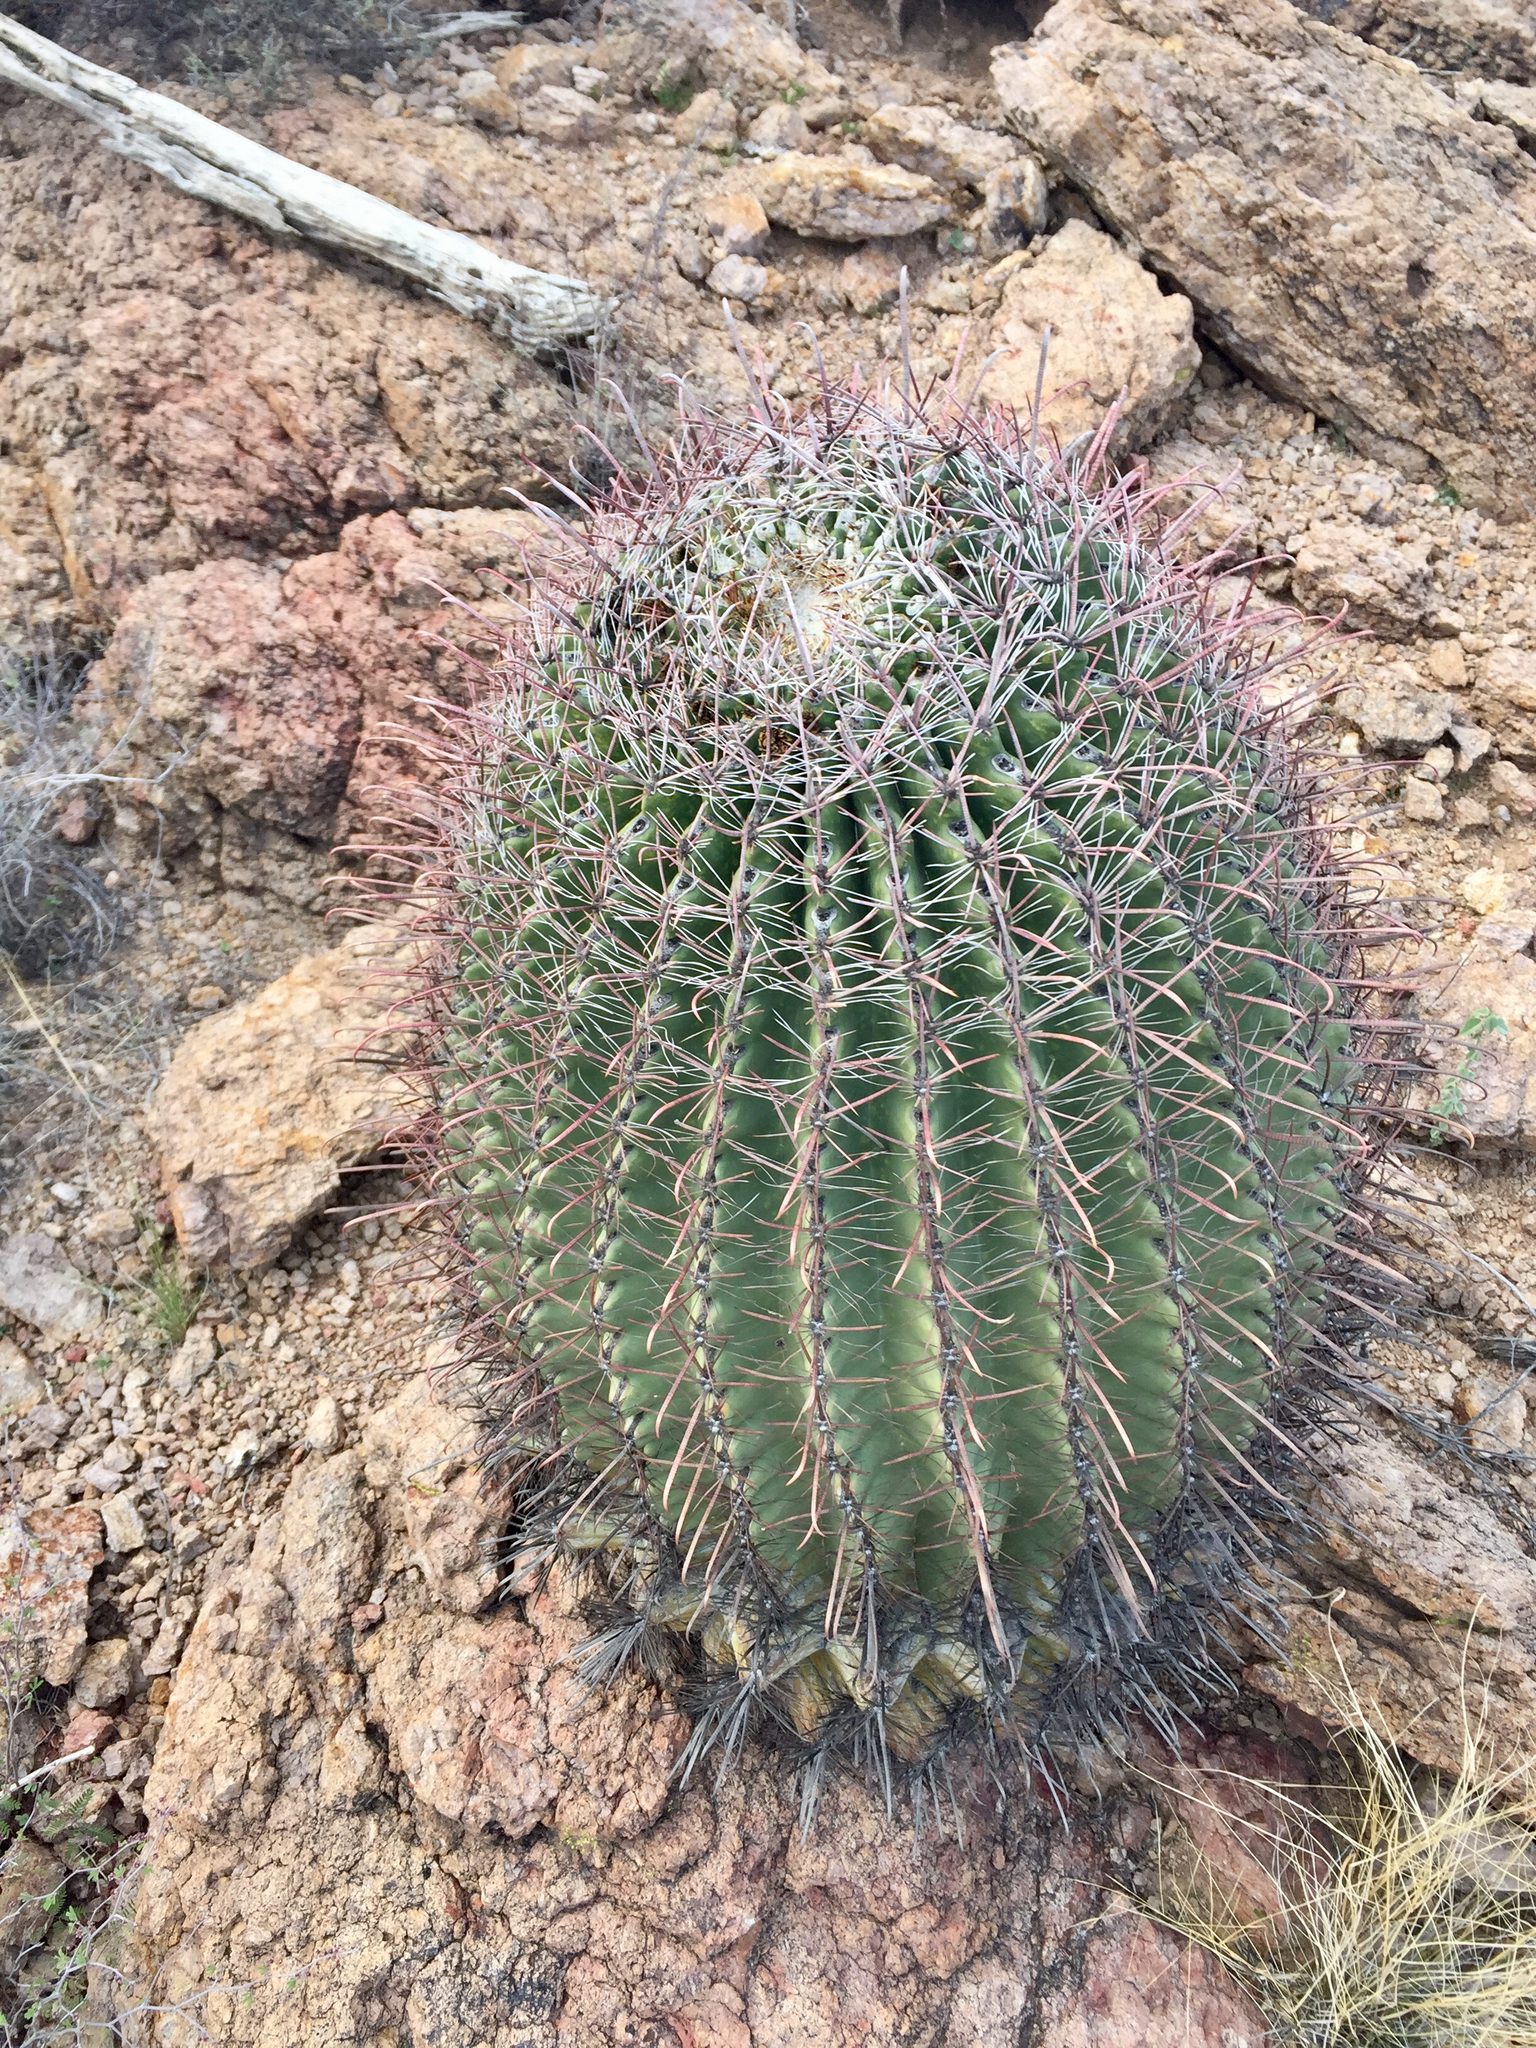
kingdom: Plantae
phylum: Tracheophyta
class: Magnoliopsida
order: Caryophyllales
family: Cactaceae
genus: Ferocactus
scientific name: Ferocactus wislizeni
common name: Candy barrel cactus
